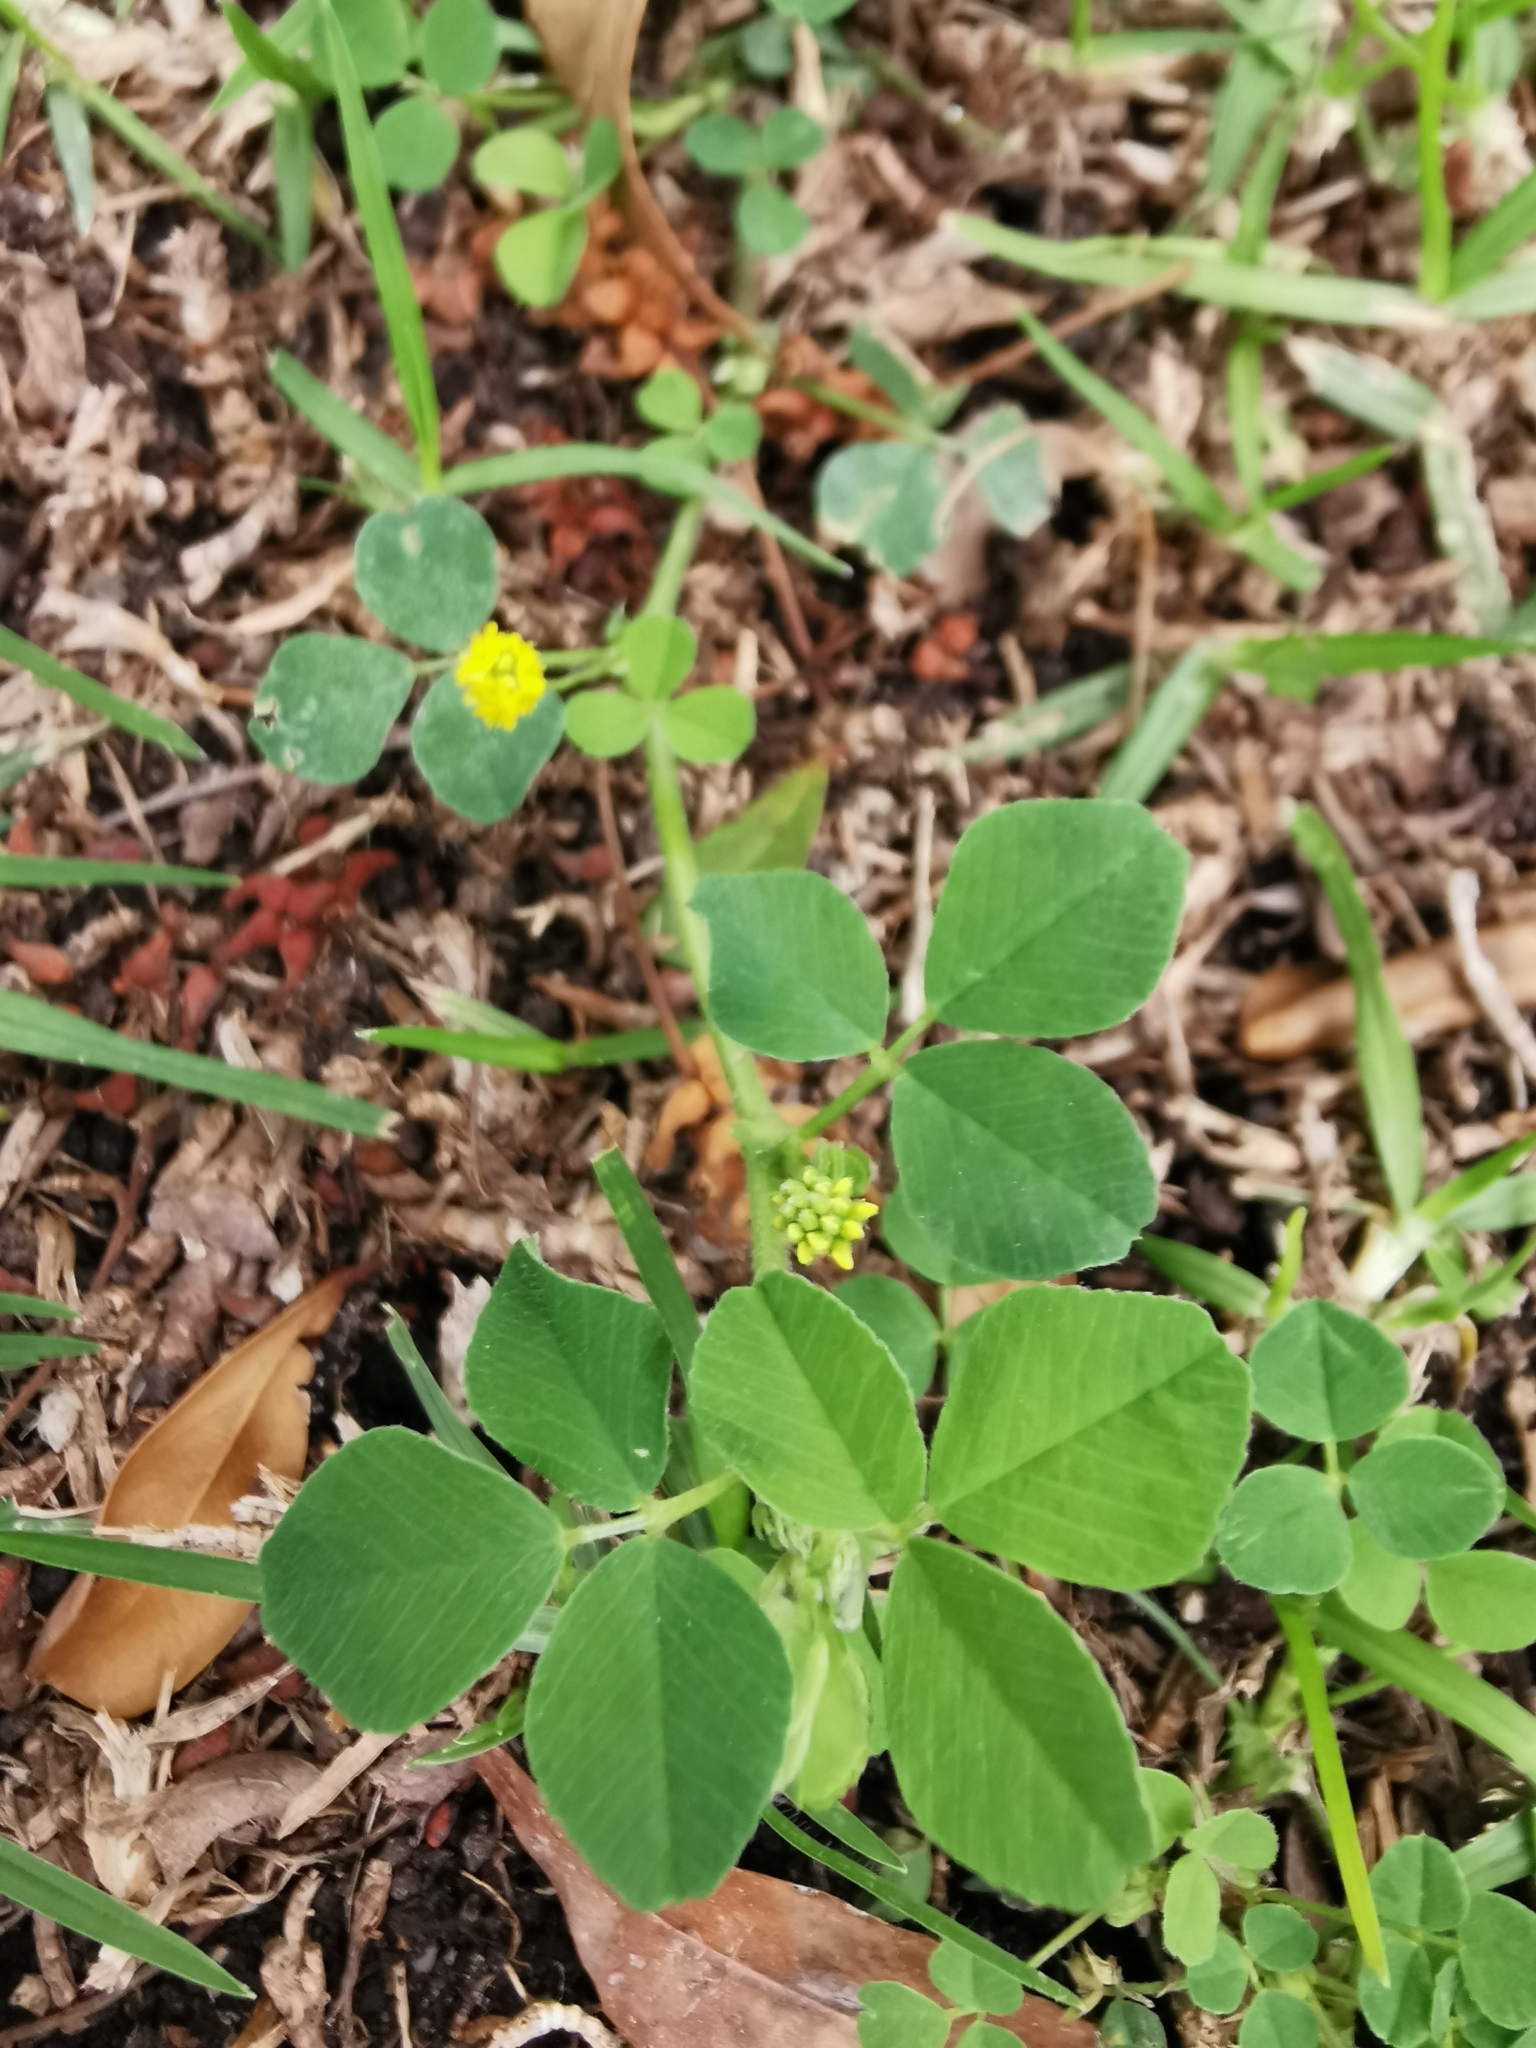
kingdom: Plantae
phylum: Tracheophyta
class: Magnoliopsida
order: Fabales
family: Fabaceae
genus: Medicago
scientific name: Medicago lupulina
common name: Black medick
